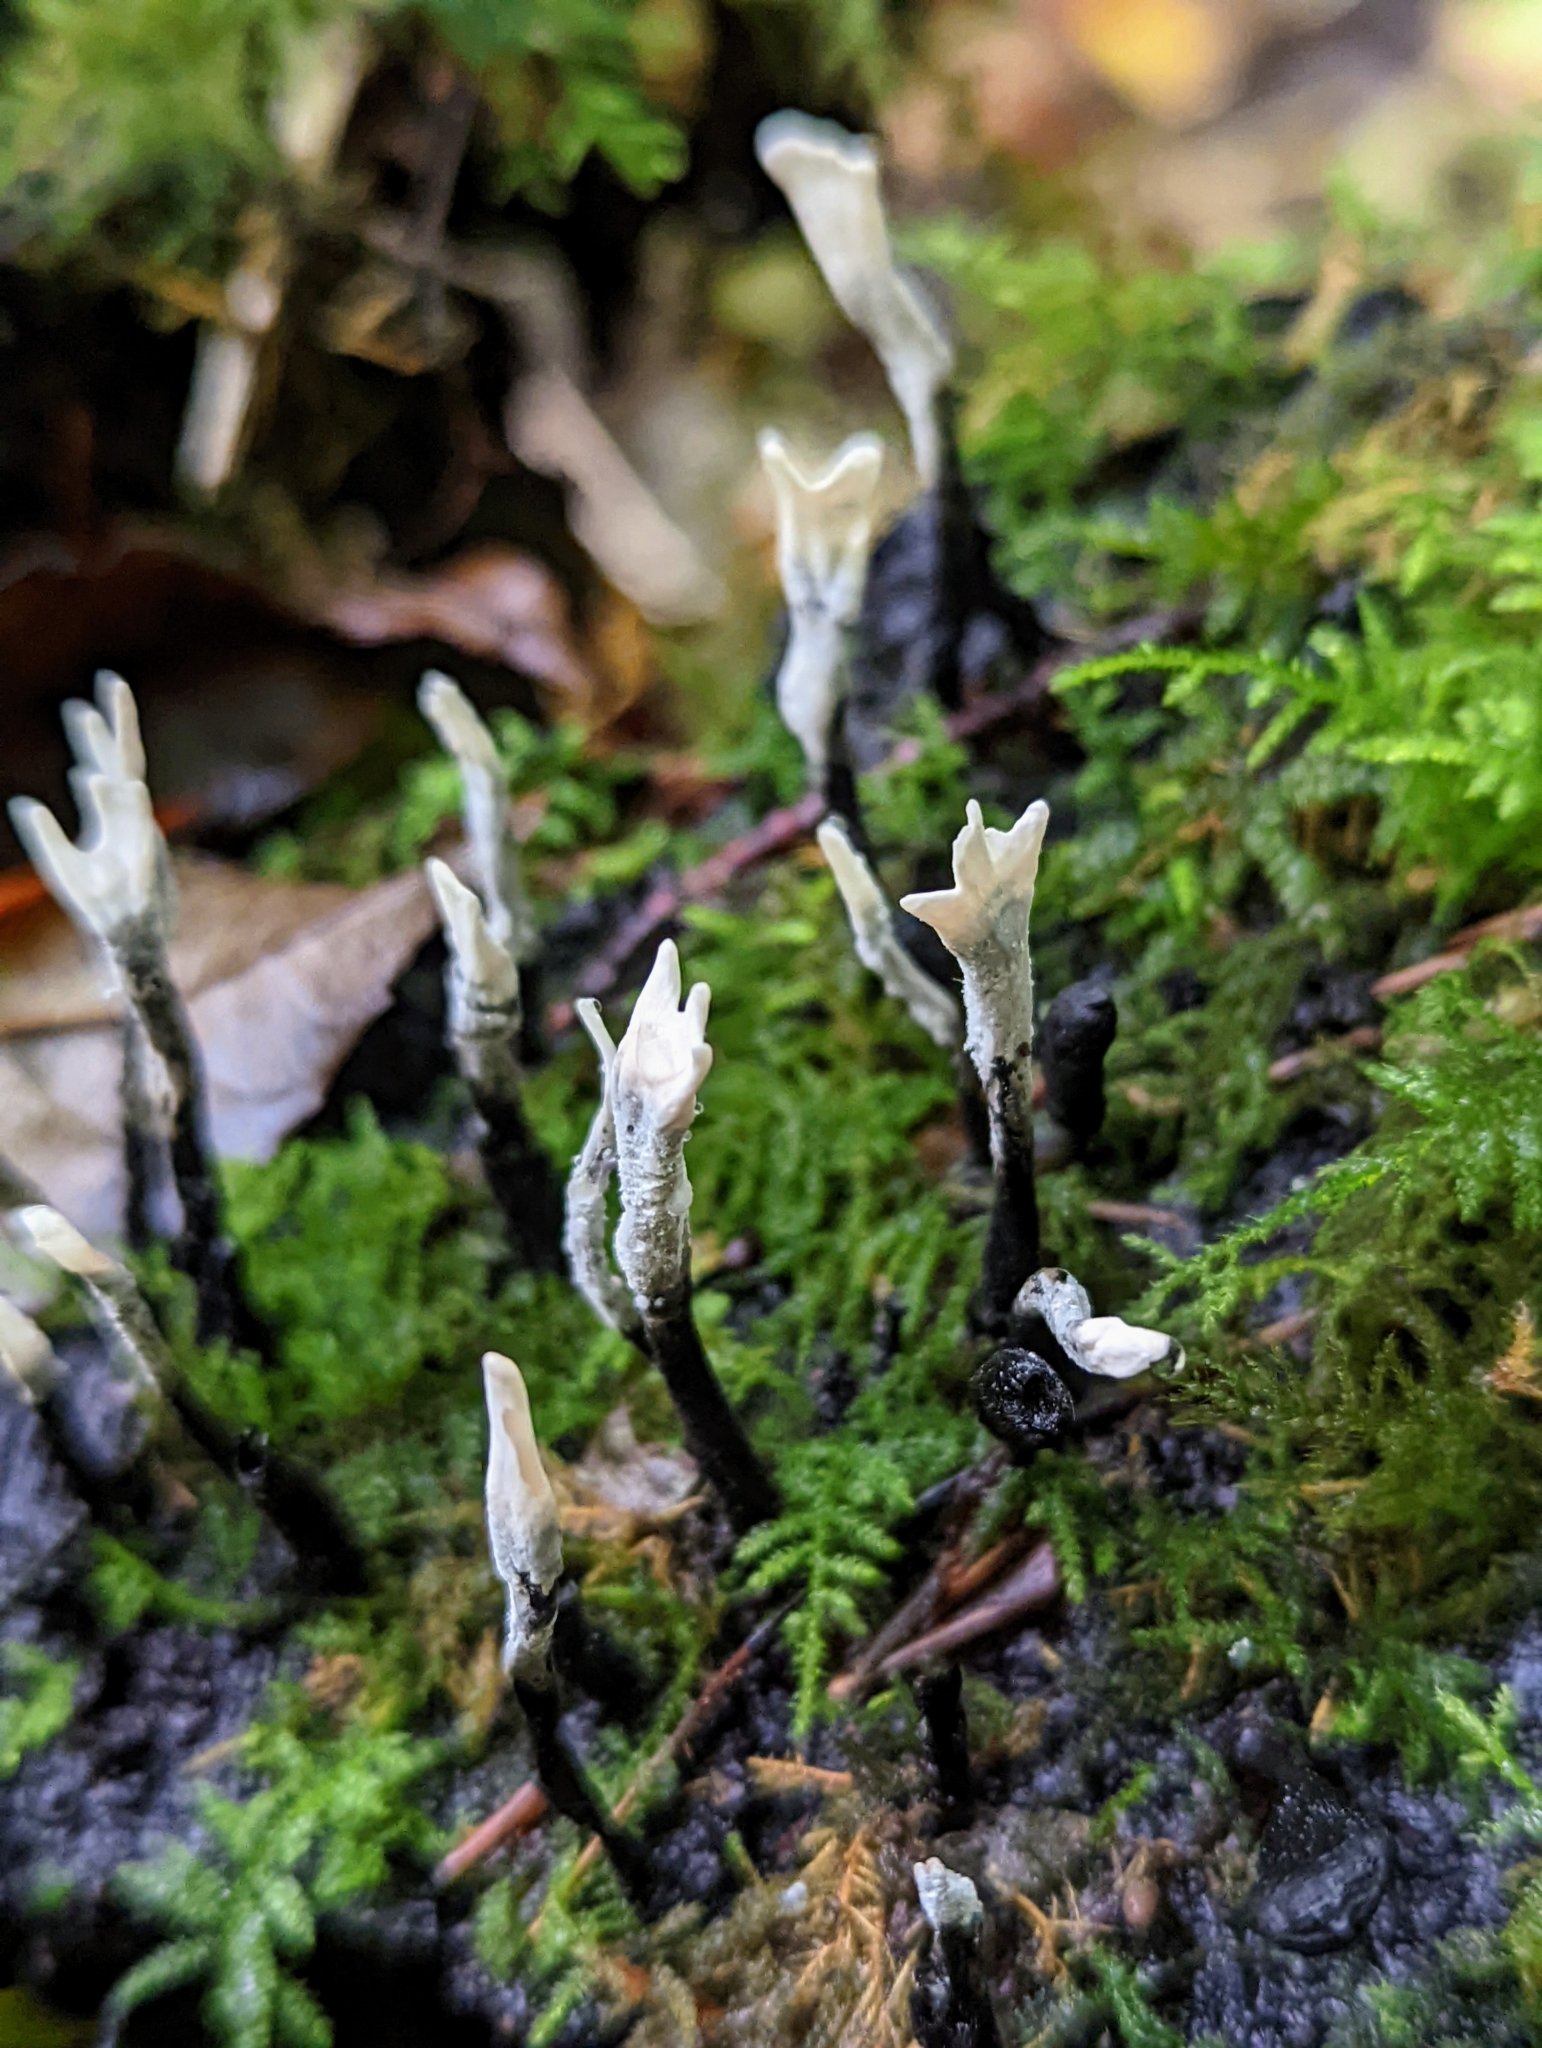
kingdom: Fungi
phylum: Ascomycota
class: Sordariomycetes
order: Xylariales
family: Xylariaceae
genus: Xylaria
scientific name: Xylaria hypoxylon
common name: Candle-snuff fungus
